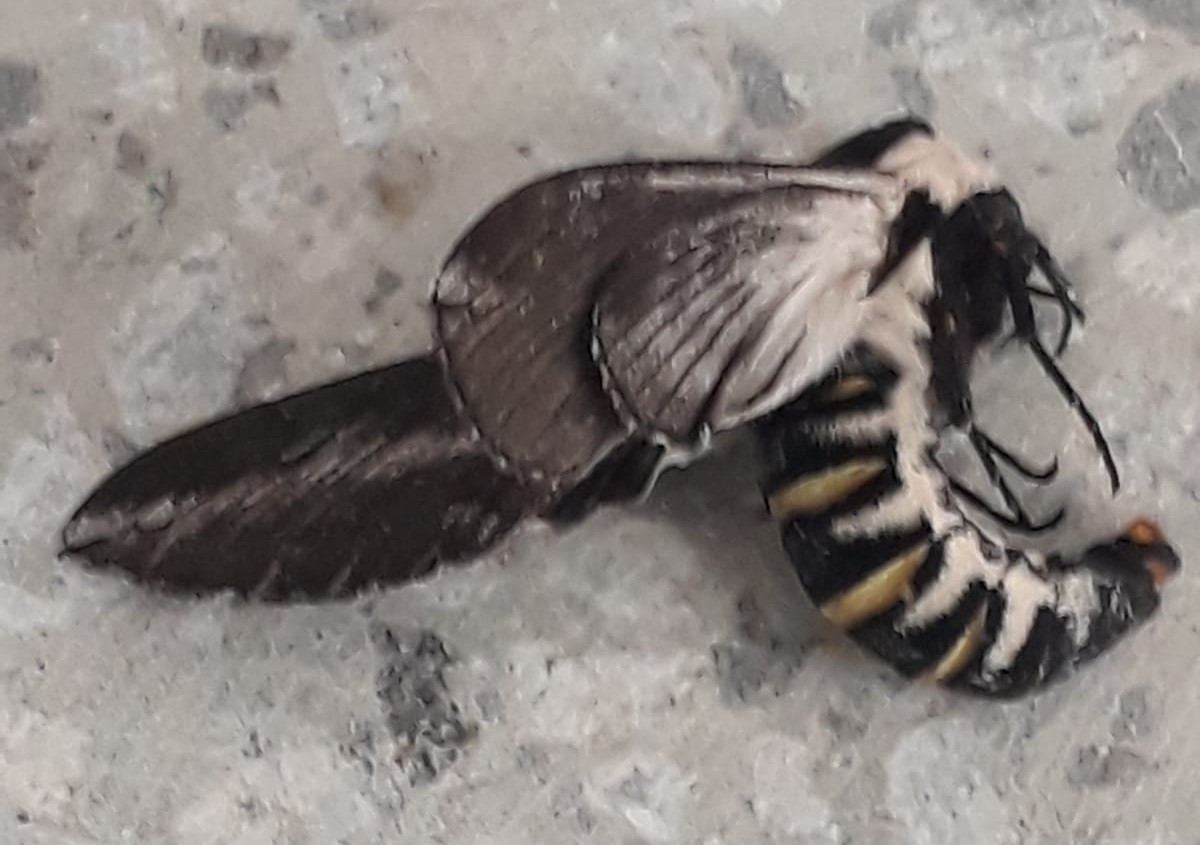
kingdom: Animalia
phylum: Arthropoda
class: Insecta
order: Lepidoptera
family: Sphingidae
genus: Neogene
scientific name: Neogene dynaeus
